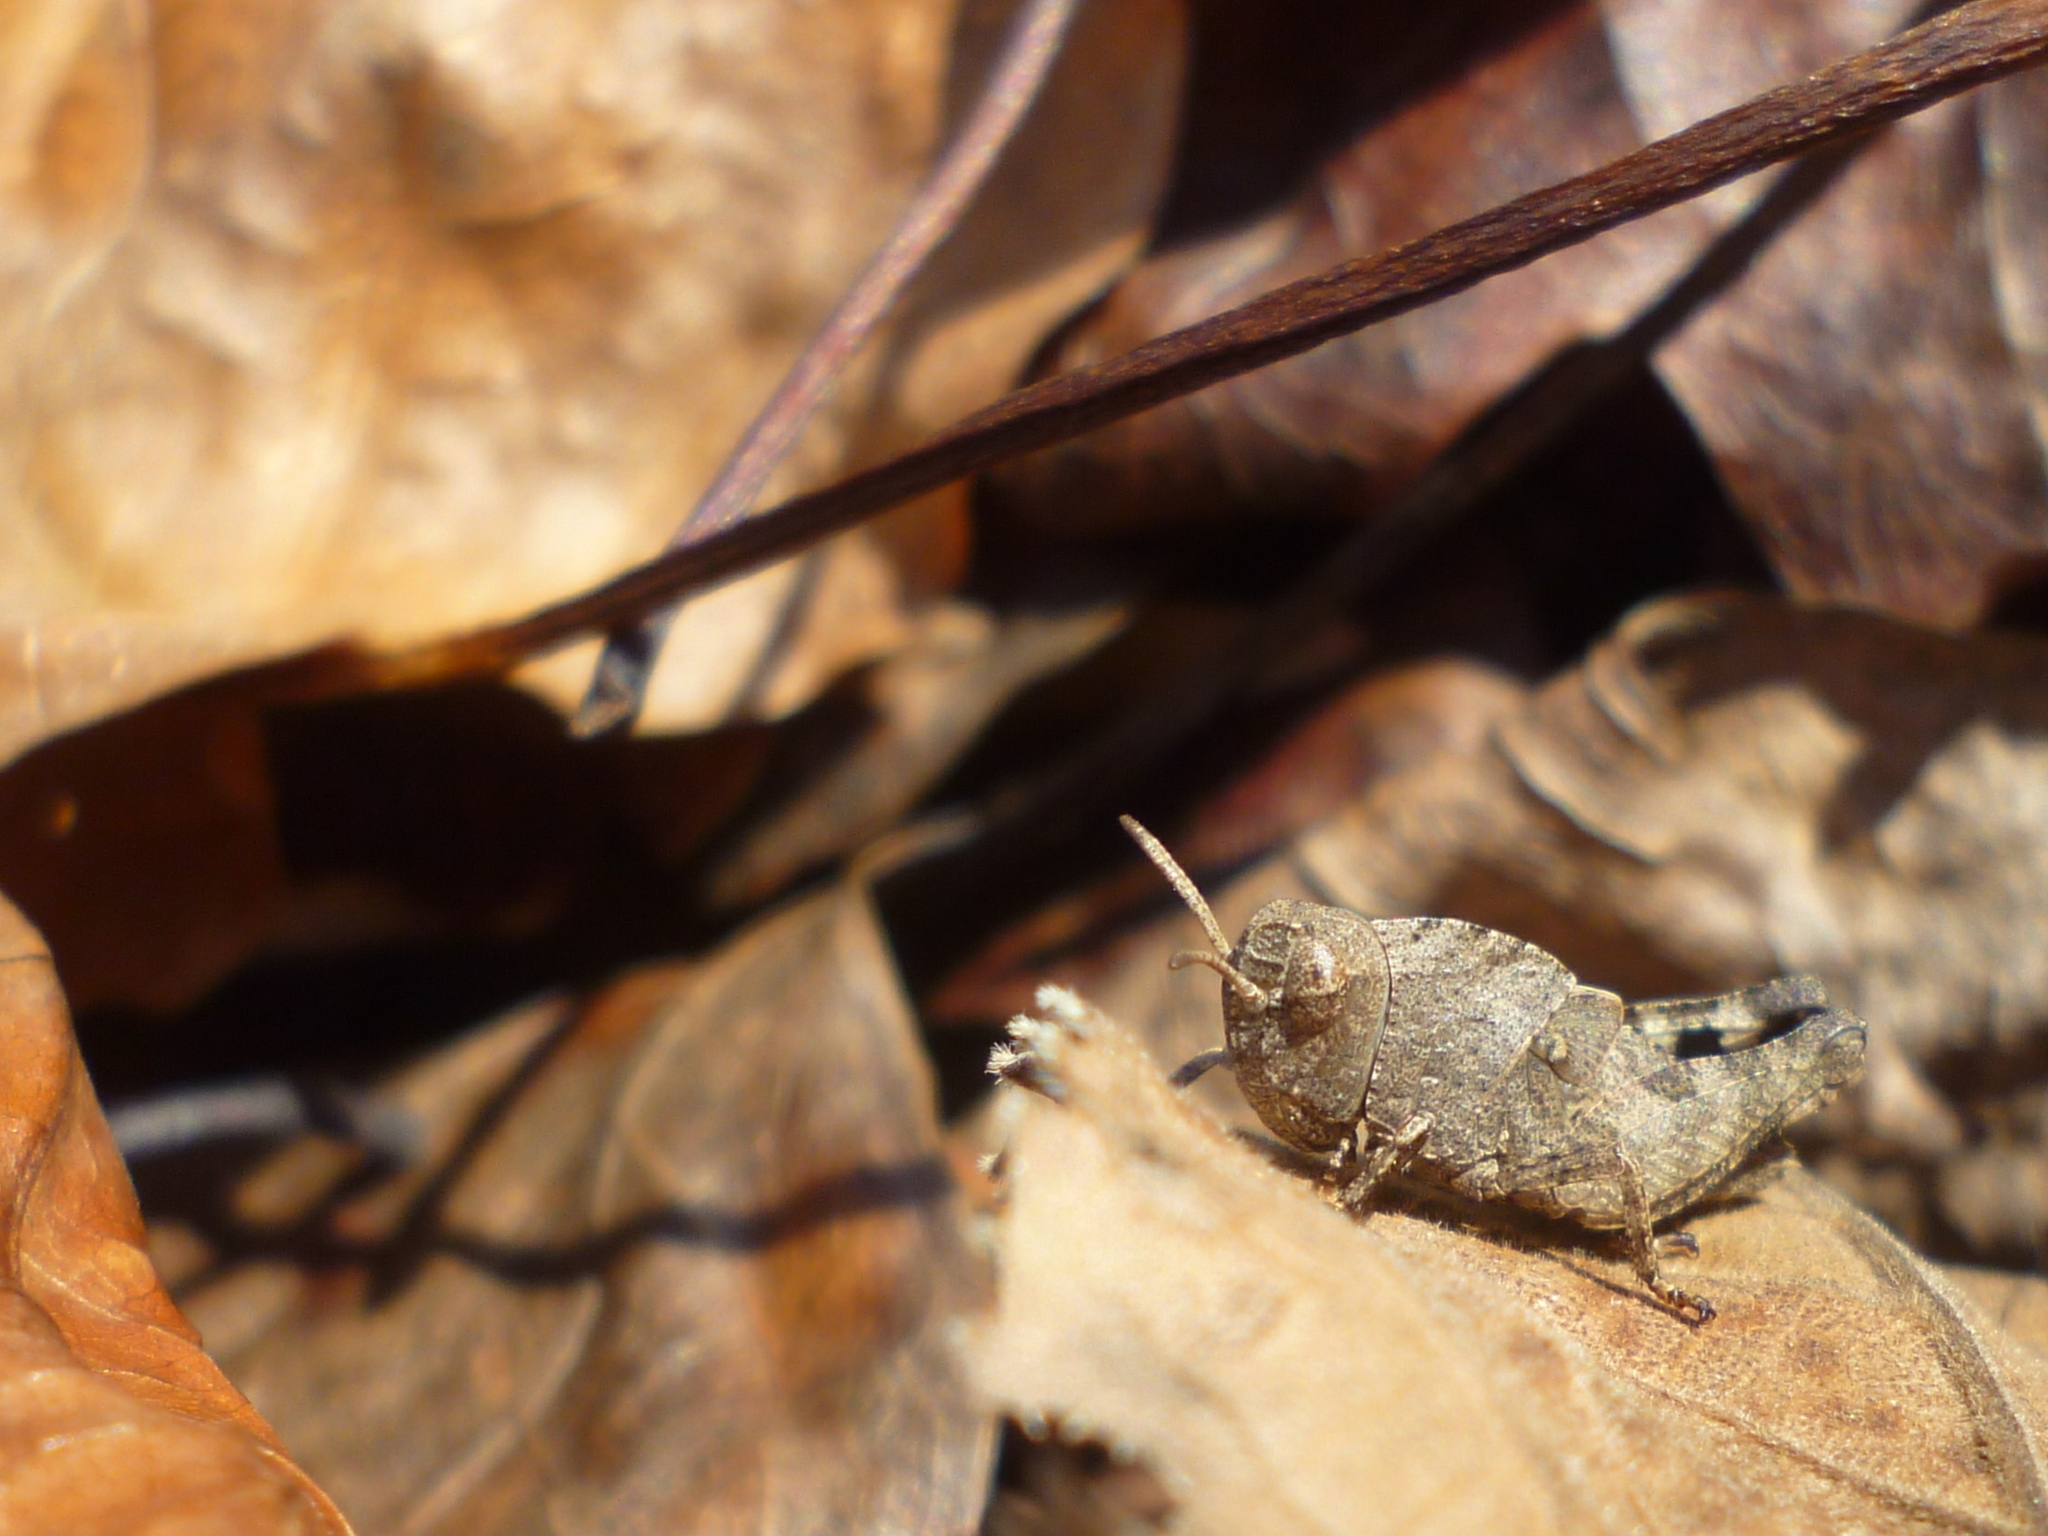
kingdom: Animalia
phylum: Arthropoda
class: Insecta
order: Orthoptera
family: Acrididae
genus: Arphia
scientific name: Arphia sulphurea
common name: Spring yellow-winged locust
